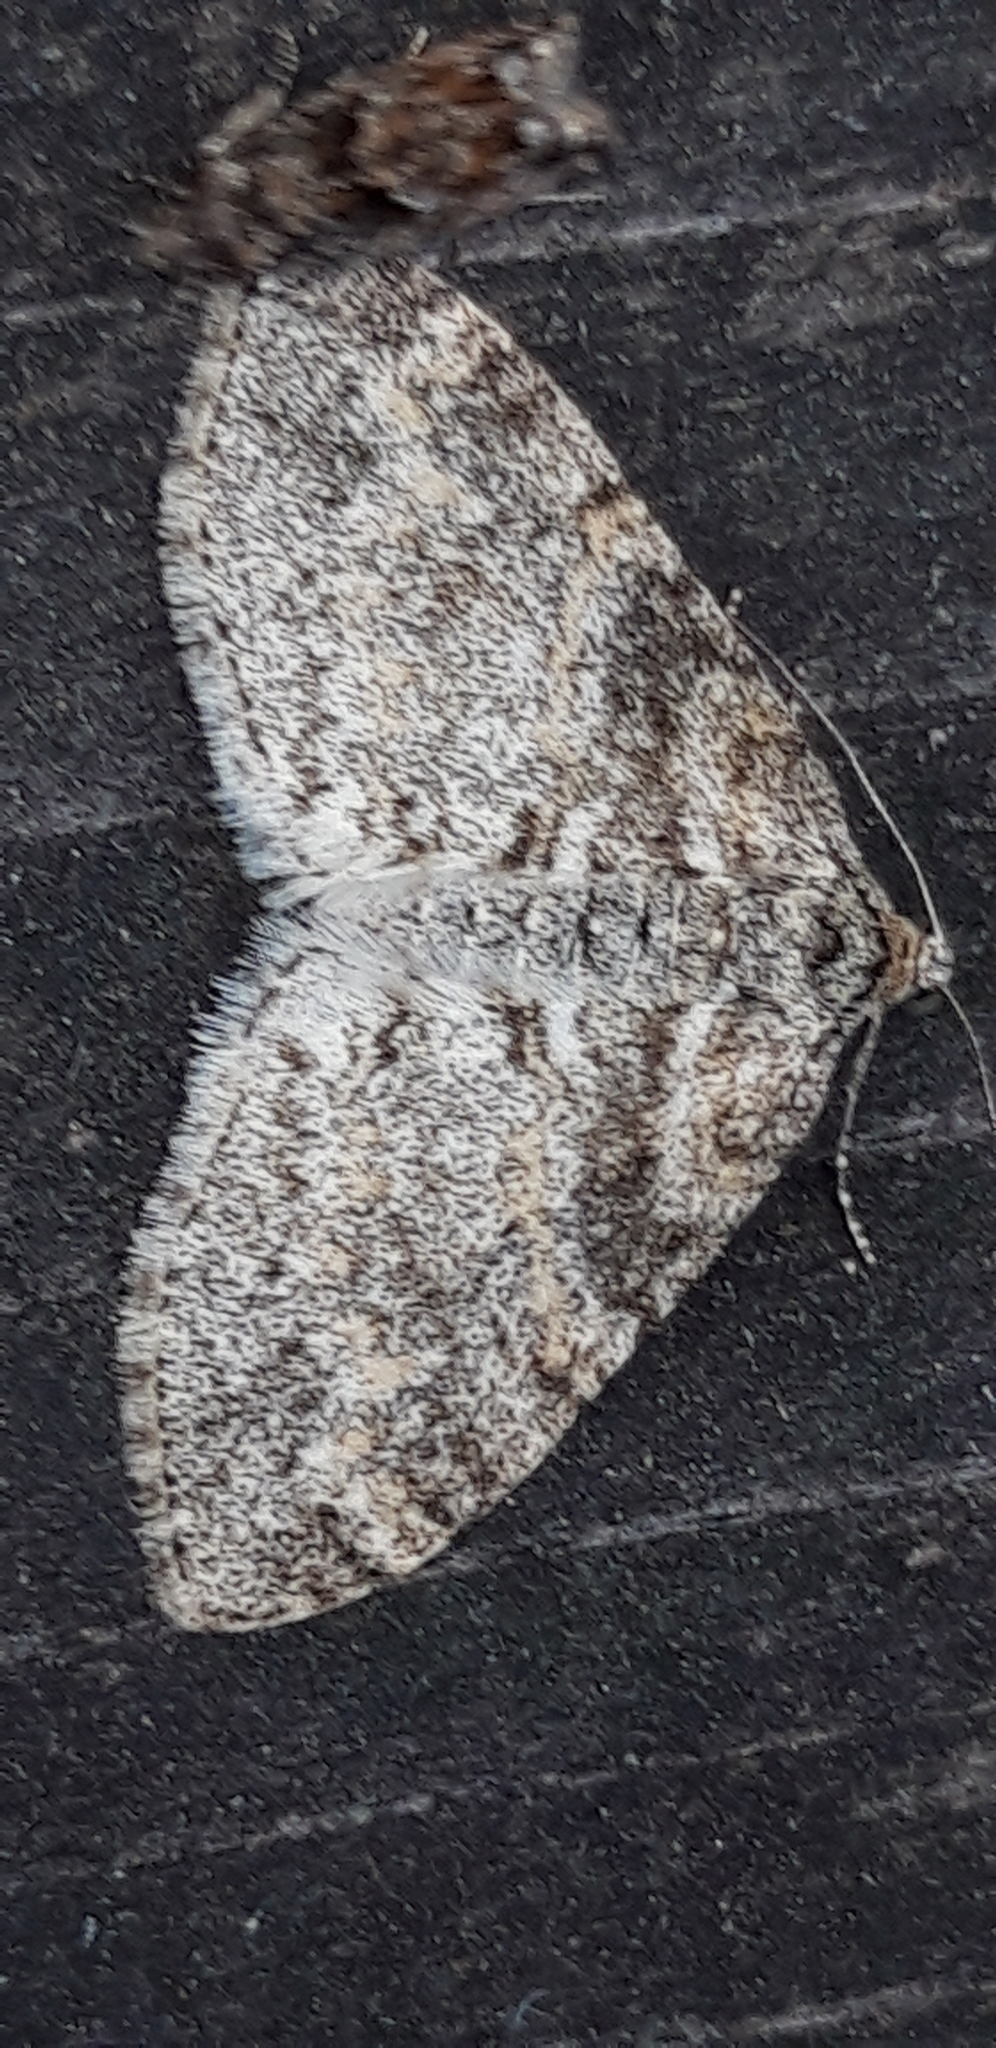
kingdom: Animalia
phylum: Arthropoda
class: Insecta
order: Lepidoptera
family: Geometridae
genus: Lobophora
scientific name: Lobophora halterata
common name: Seraphim
